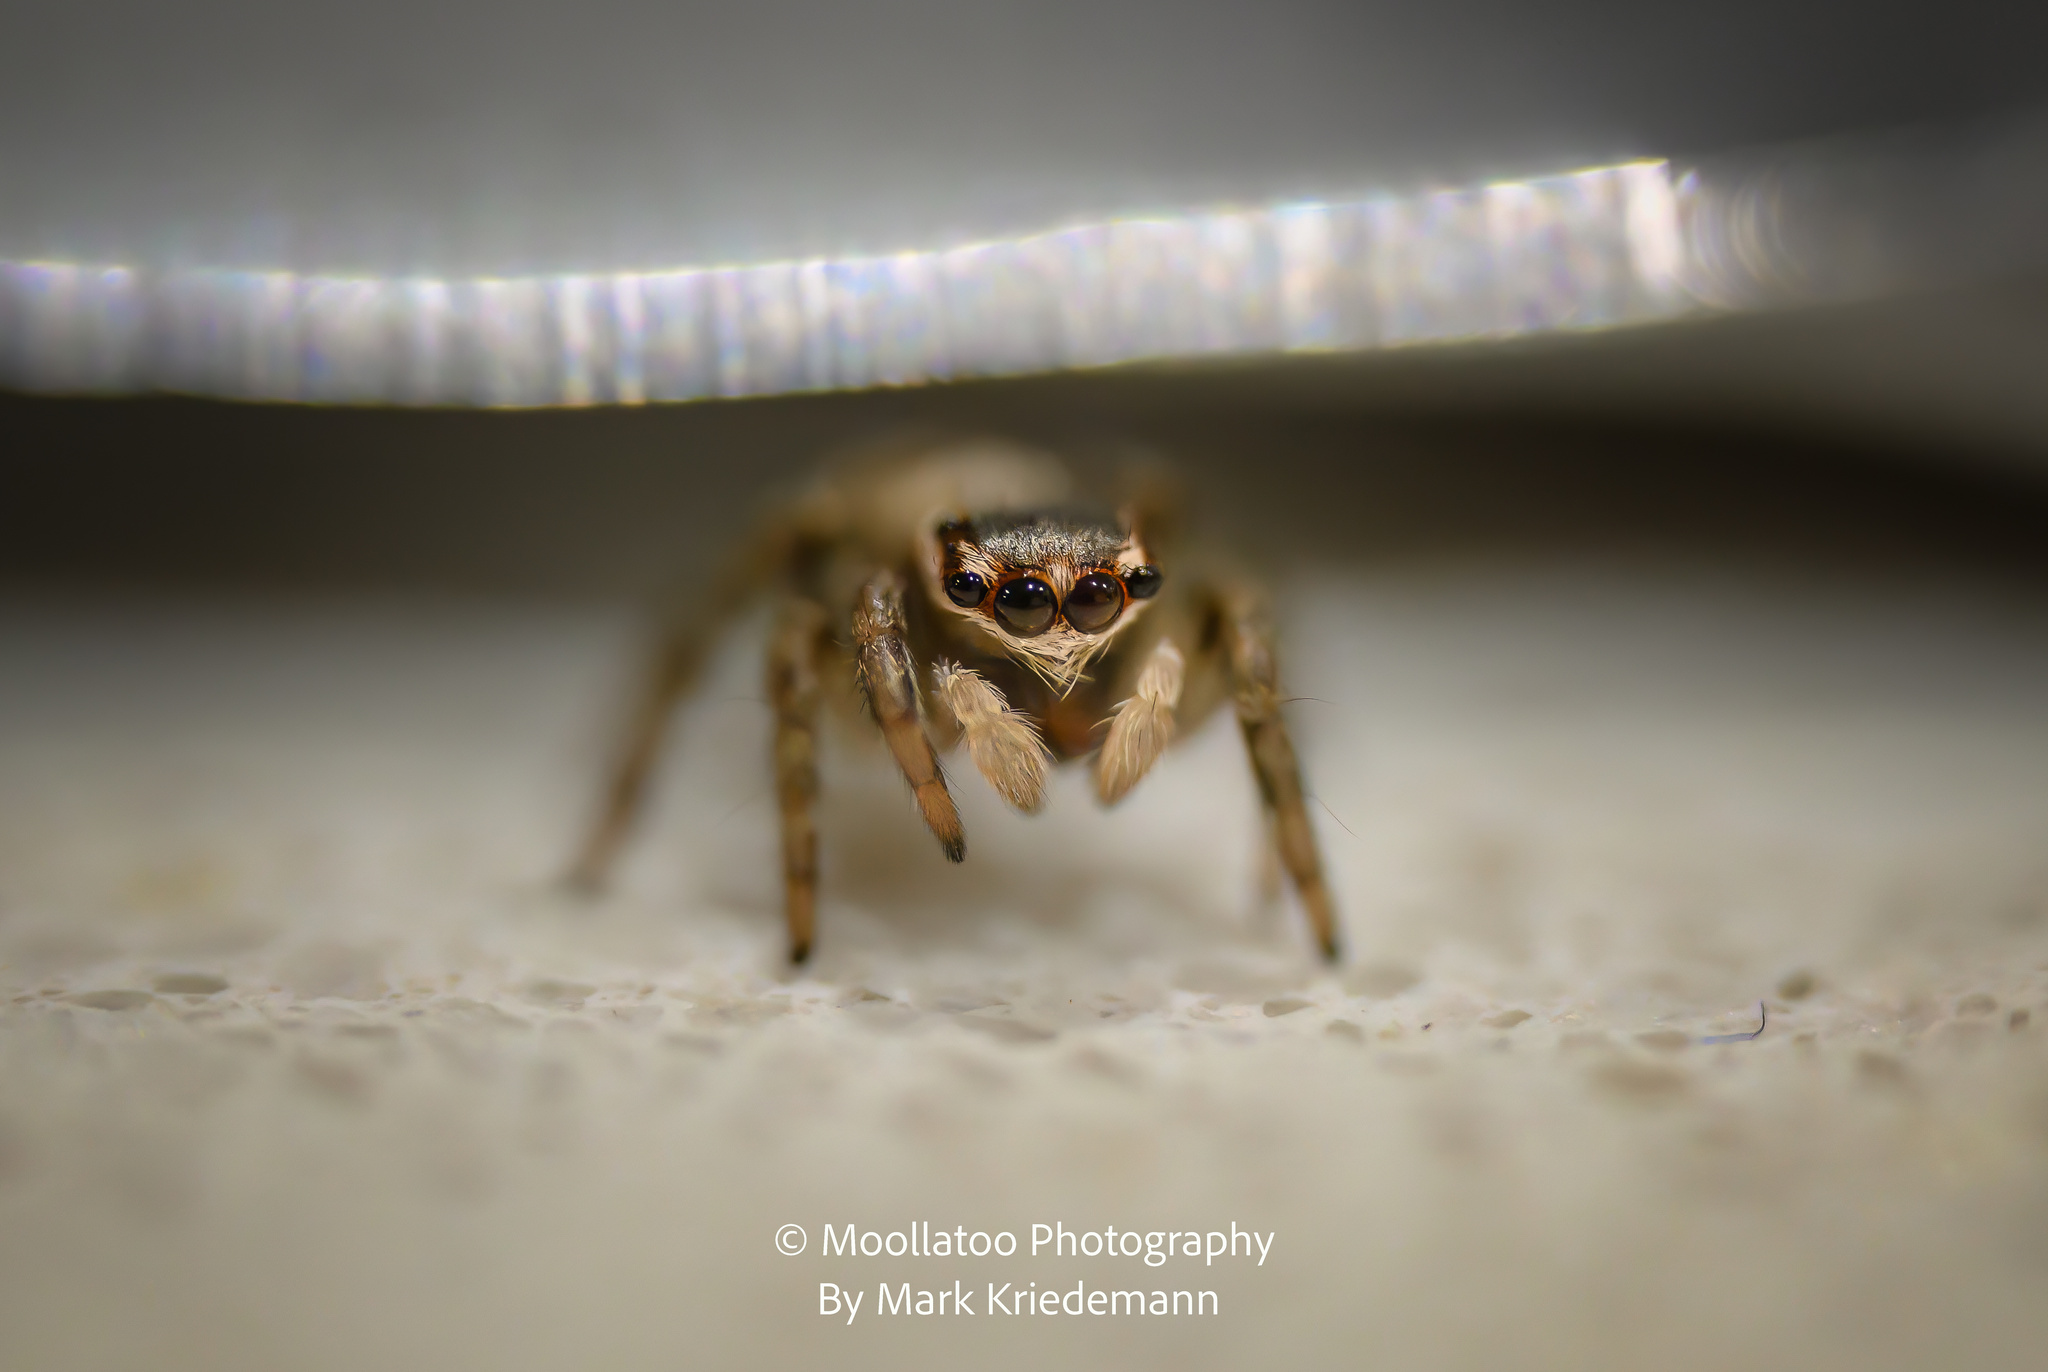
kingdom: Animalia
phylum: Arthropoda
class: Arachnida
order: Araneae
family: Salticidae
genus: Maratus
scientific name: Maratus griseus
